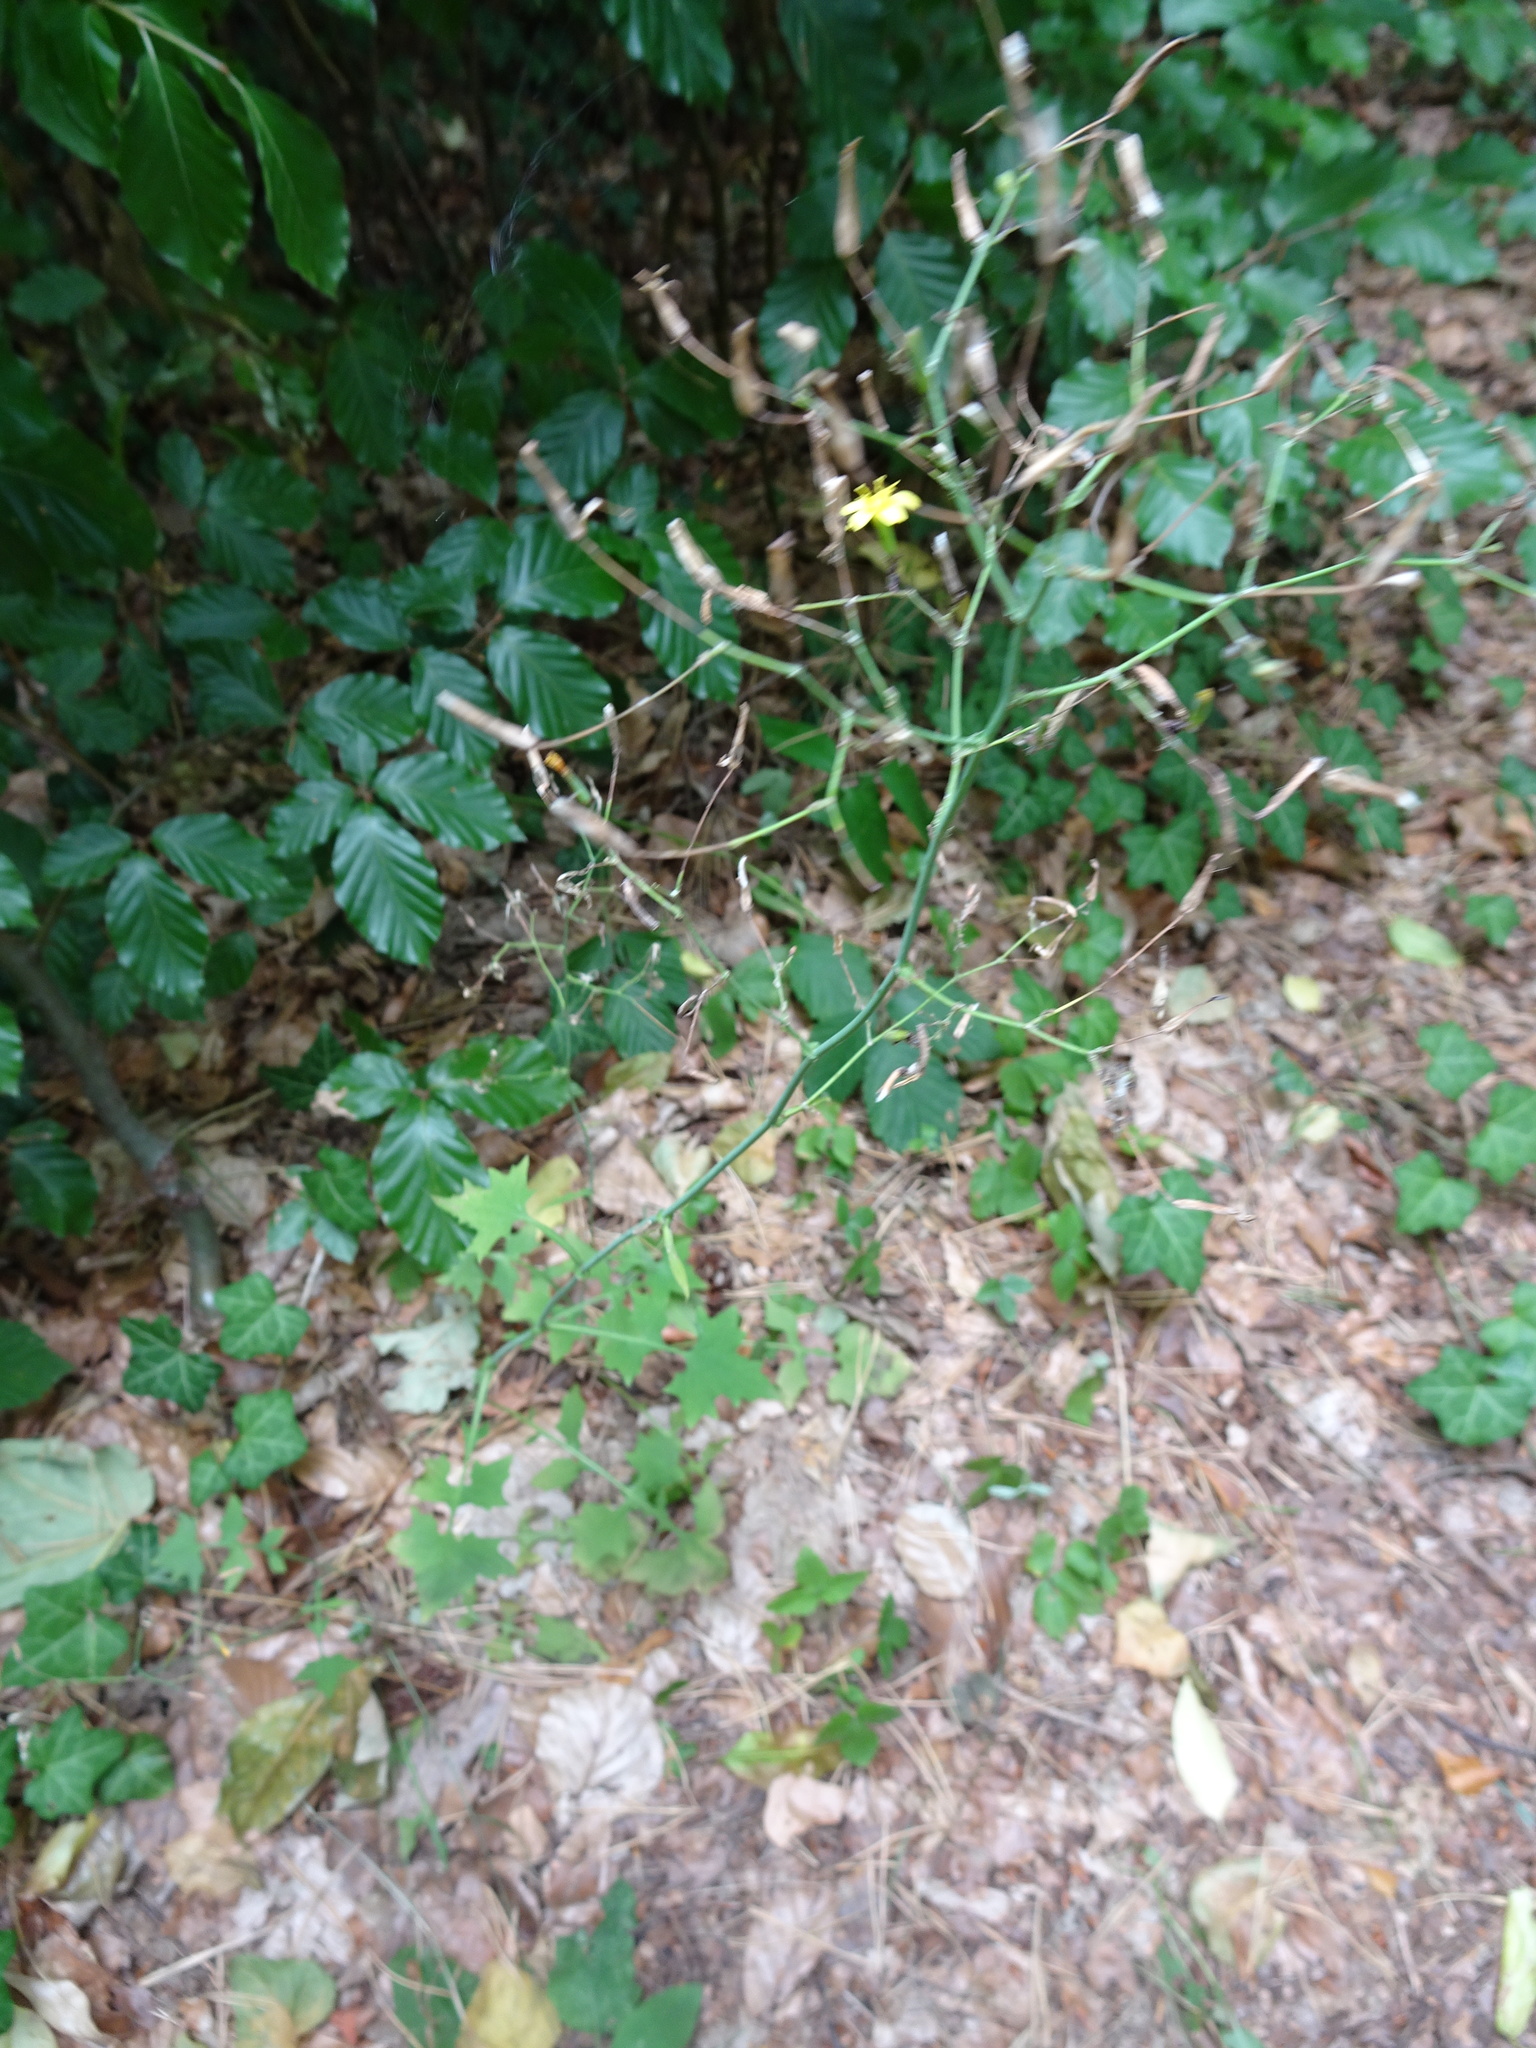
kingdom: Plantae
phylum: Tracheophyta
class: Magnoliopsida
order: Asterales
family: Asteraceae
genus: Mycelis
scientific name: Mycelis muralis
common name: Wall lettuce
